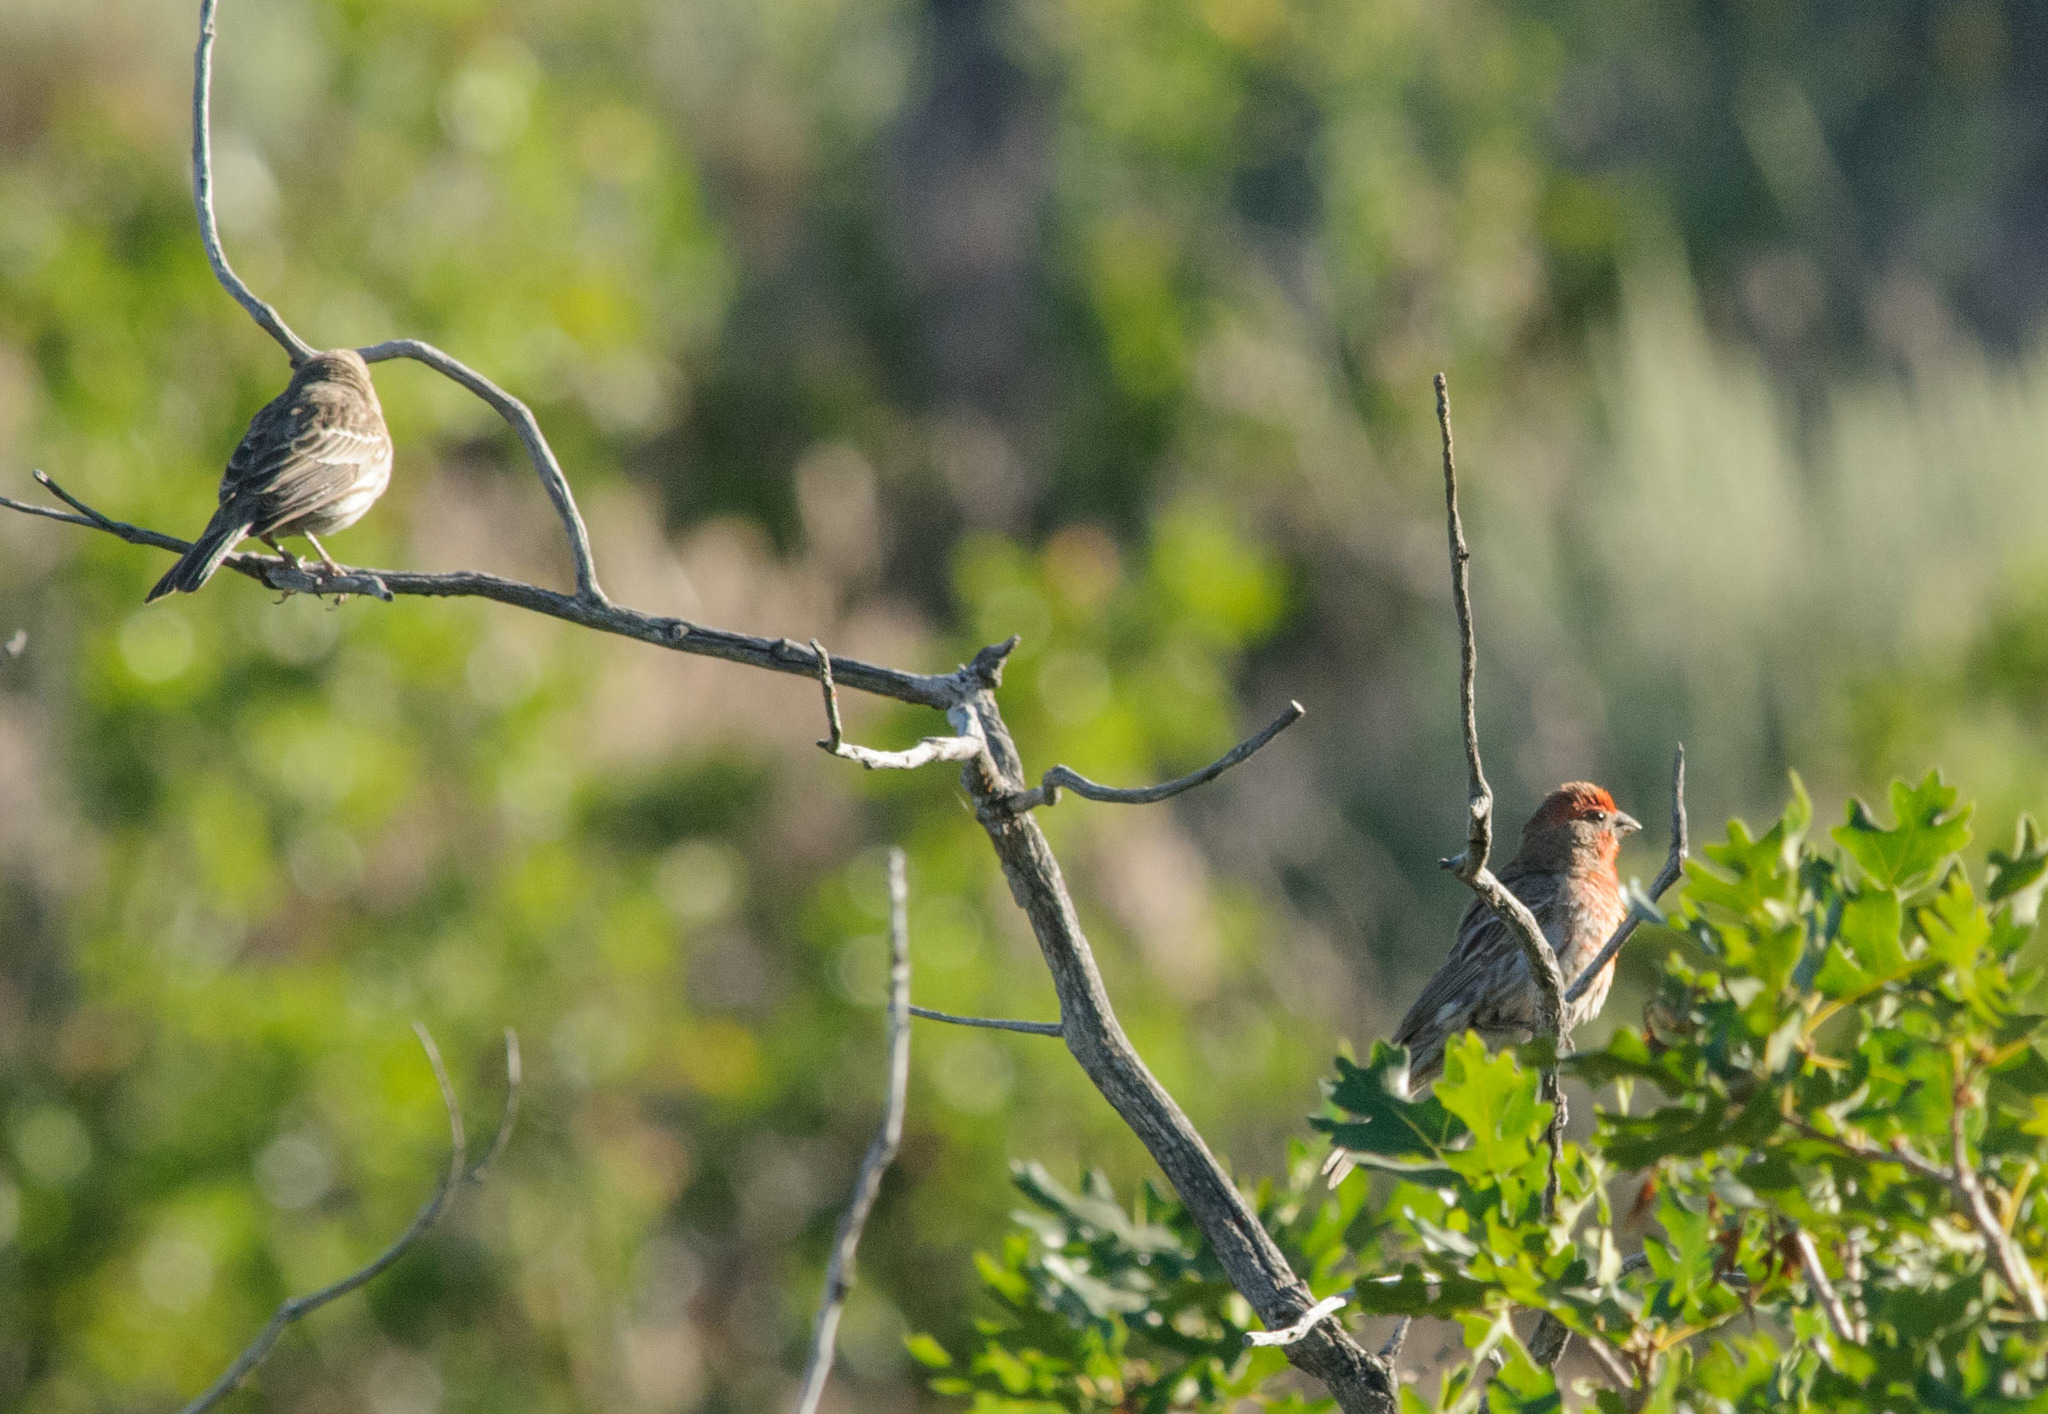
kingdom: Animalia
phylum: Chordata
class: Aves
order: Passeriformes
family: Fringillidae
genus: Haemorhous
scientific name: Haemorhous mexicanus
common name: House finch
